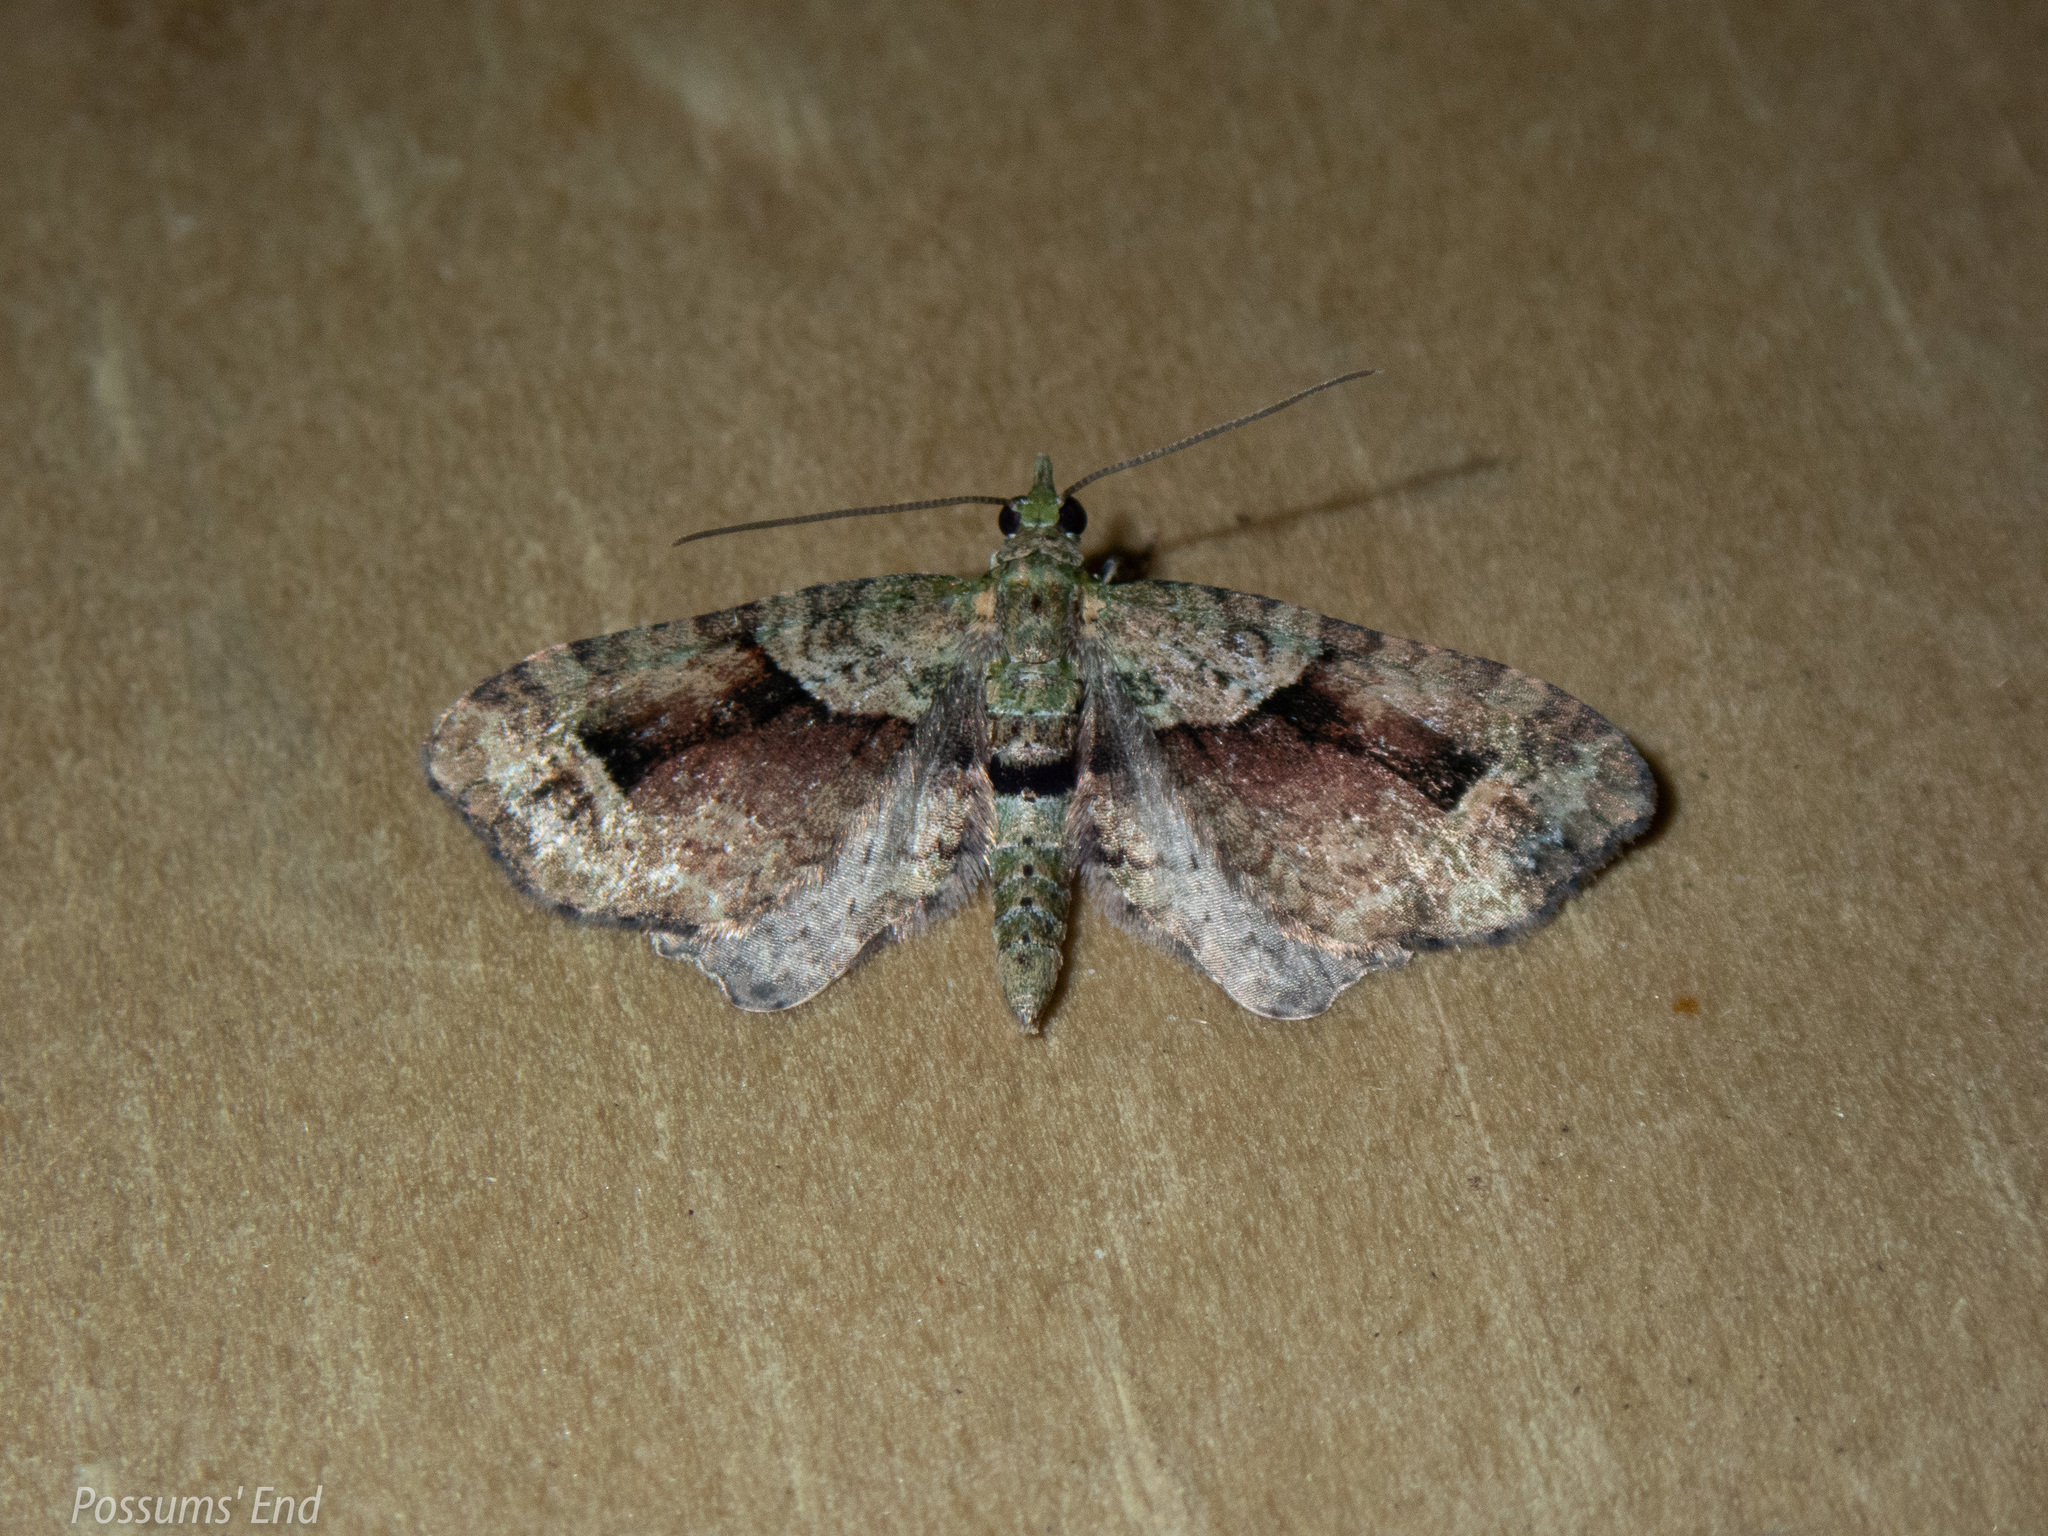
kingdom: Animalia
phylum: Arthropoda
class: Insecta
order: Lepidoptera
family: Geometridae
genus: Pasiphila
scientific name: Pasiphila suffusa
